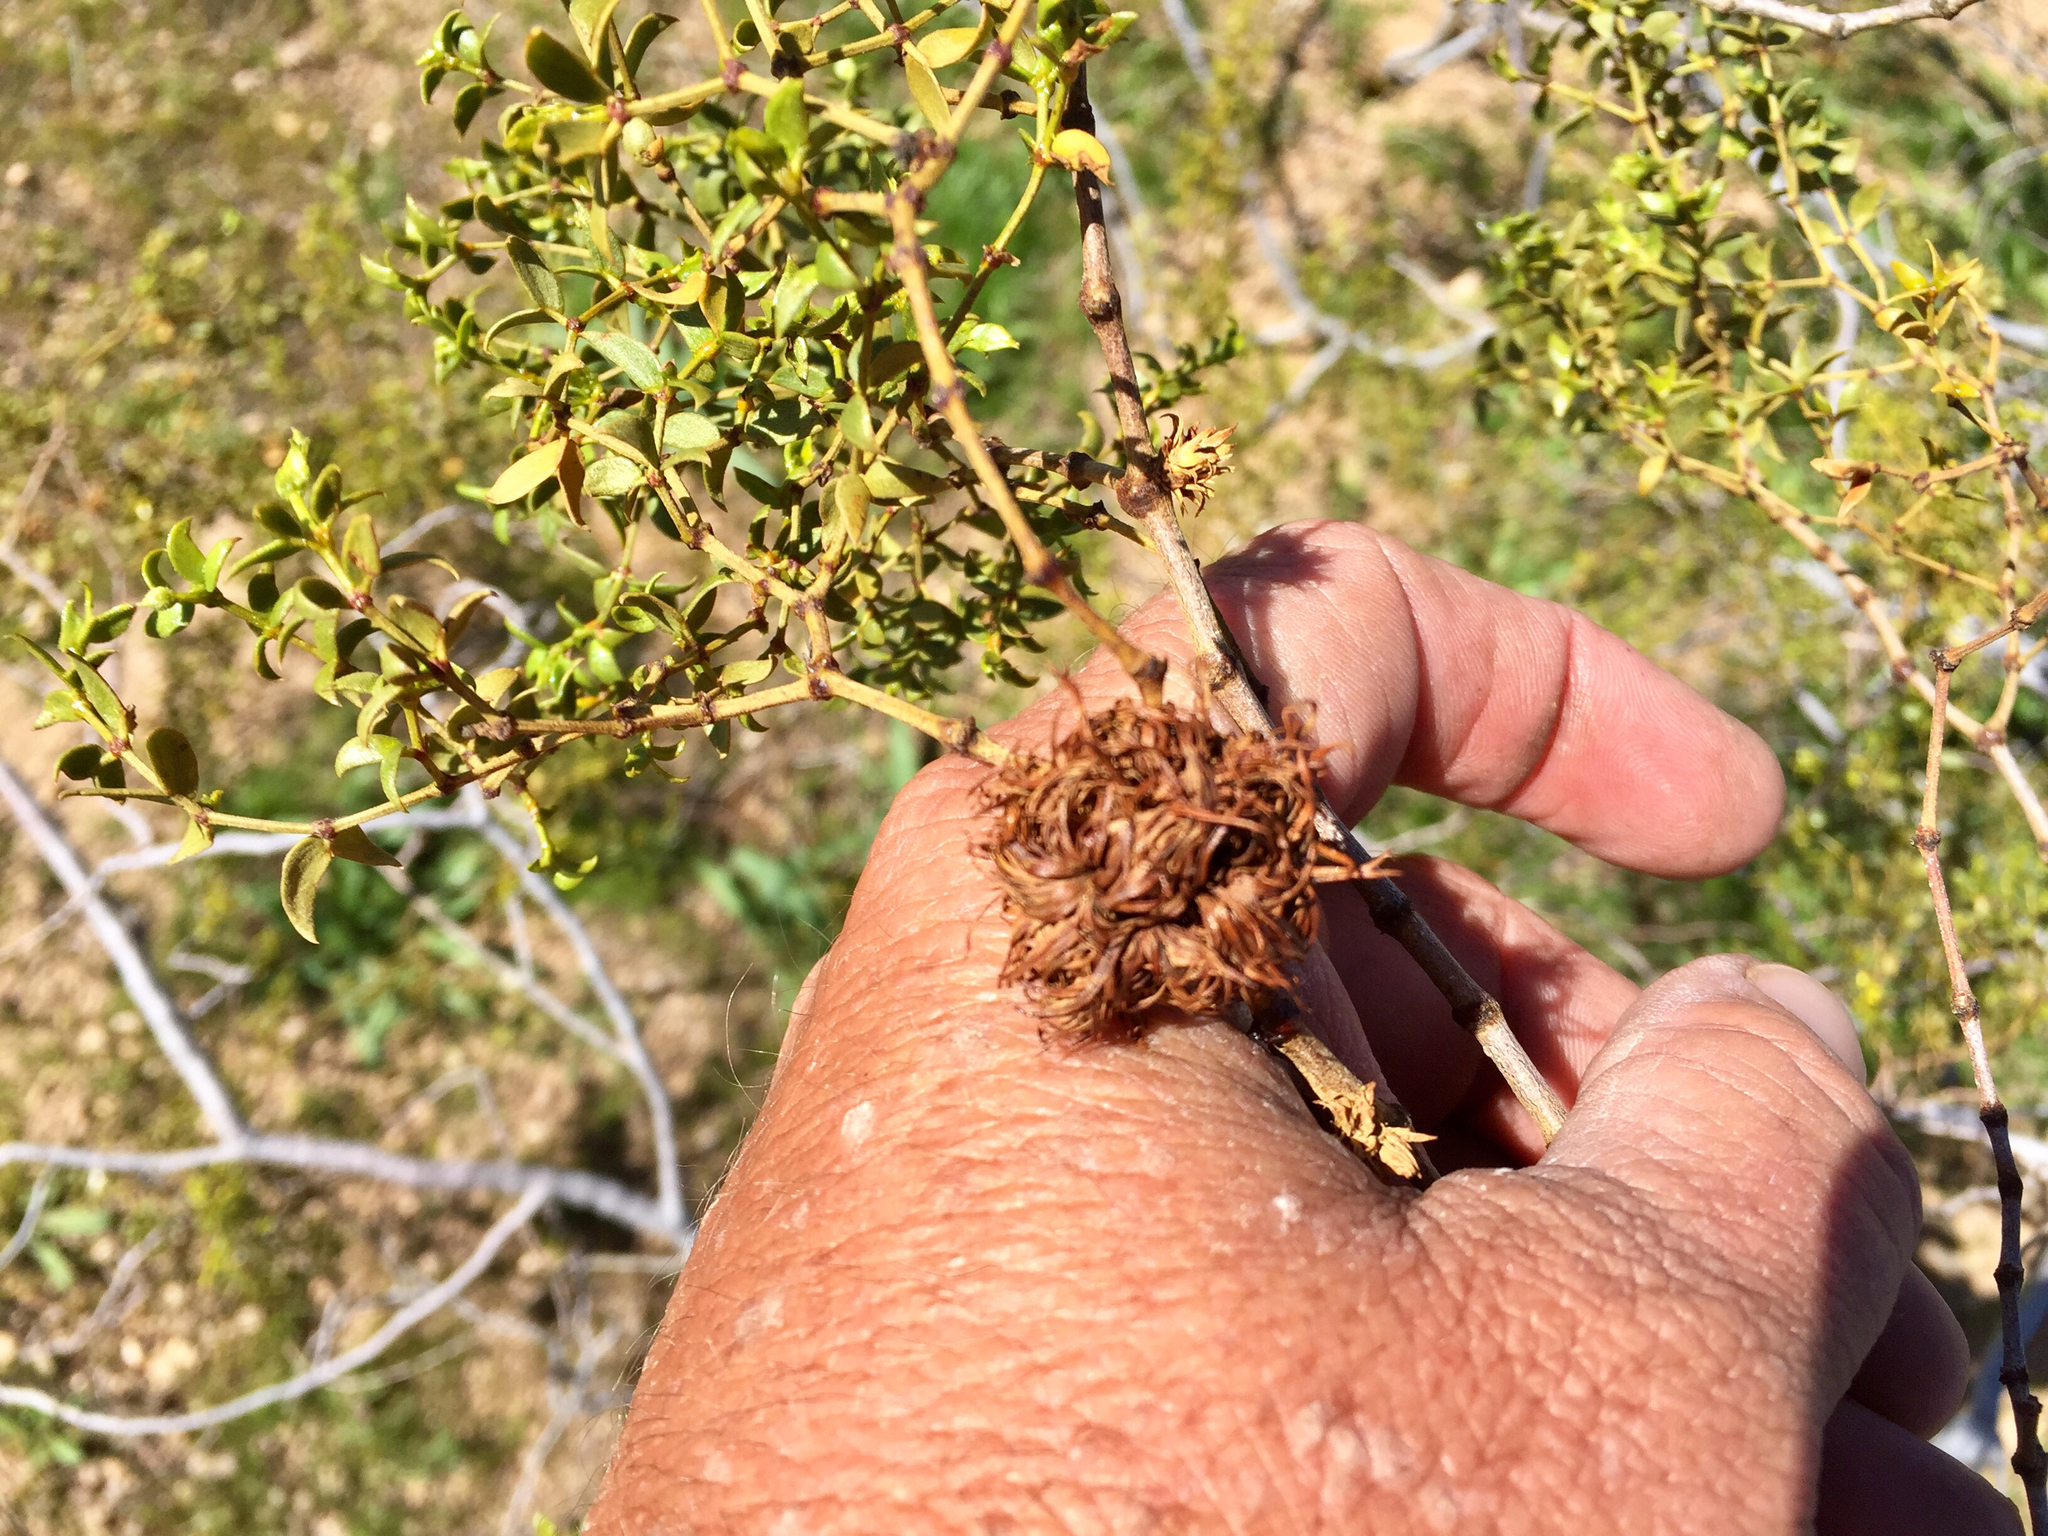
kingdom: Animalia
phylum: Arthropoda
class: Insecta
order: Diptera
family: Cecidomyiidae
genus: Asphondylia
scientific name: Asphondylia auripila
